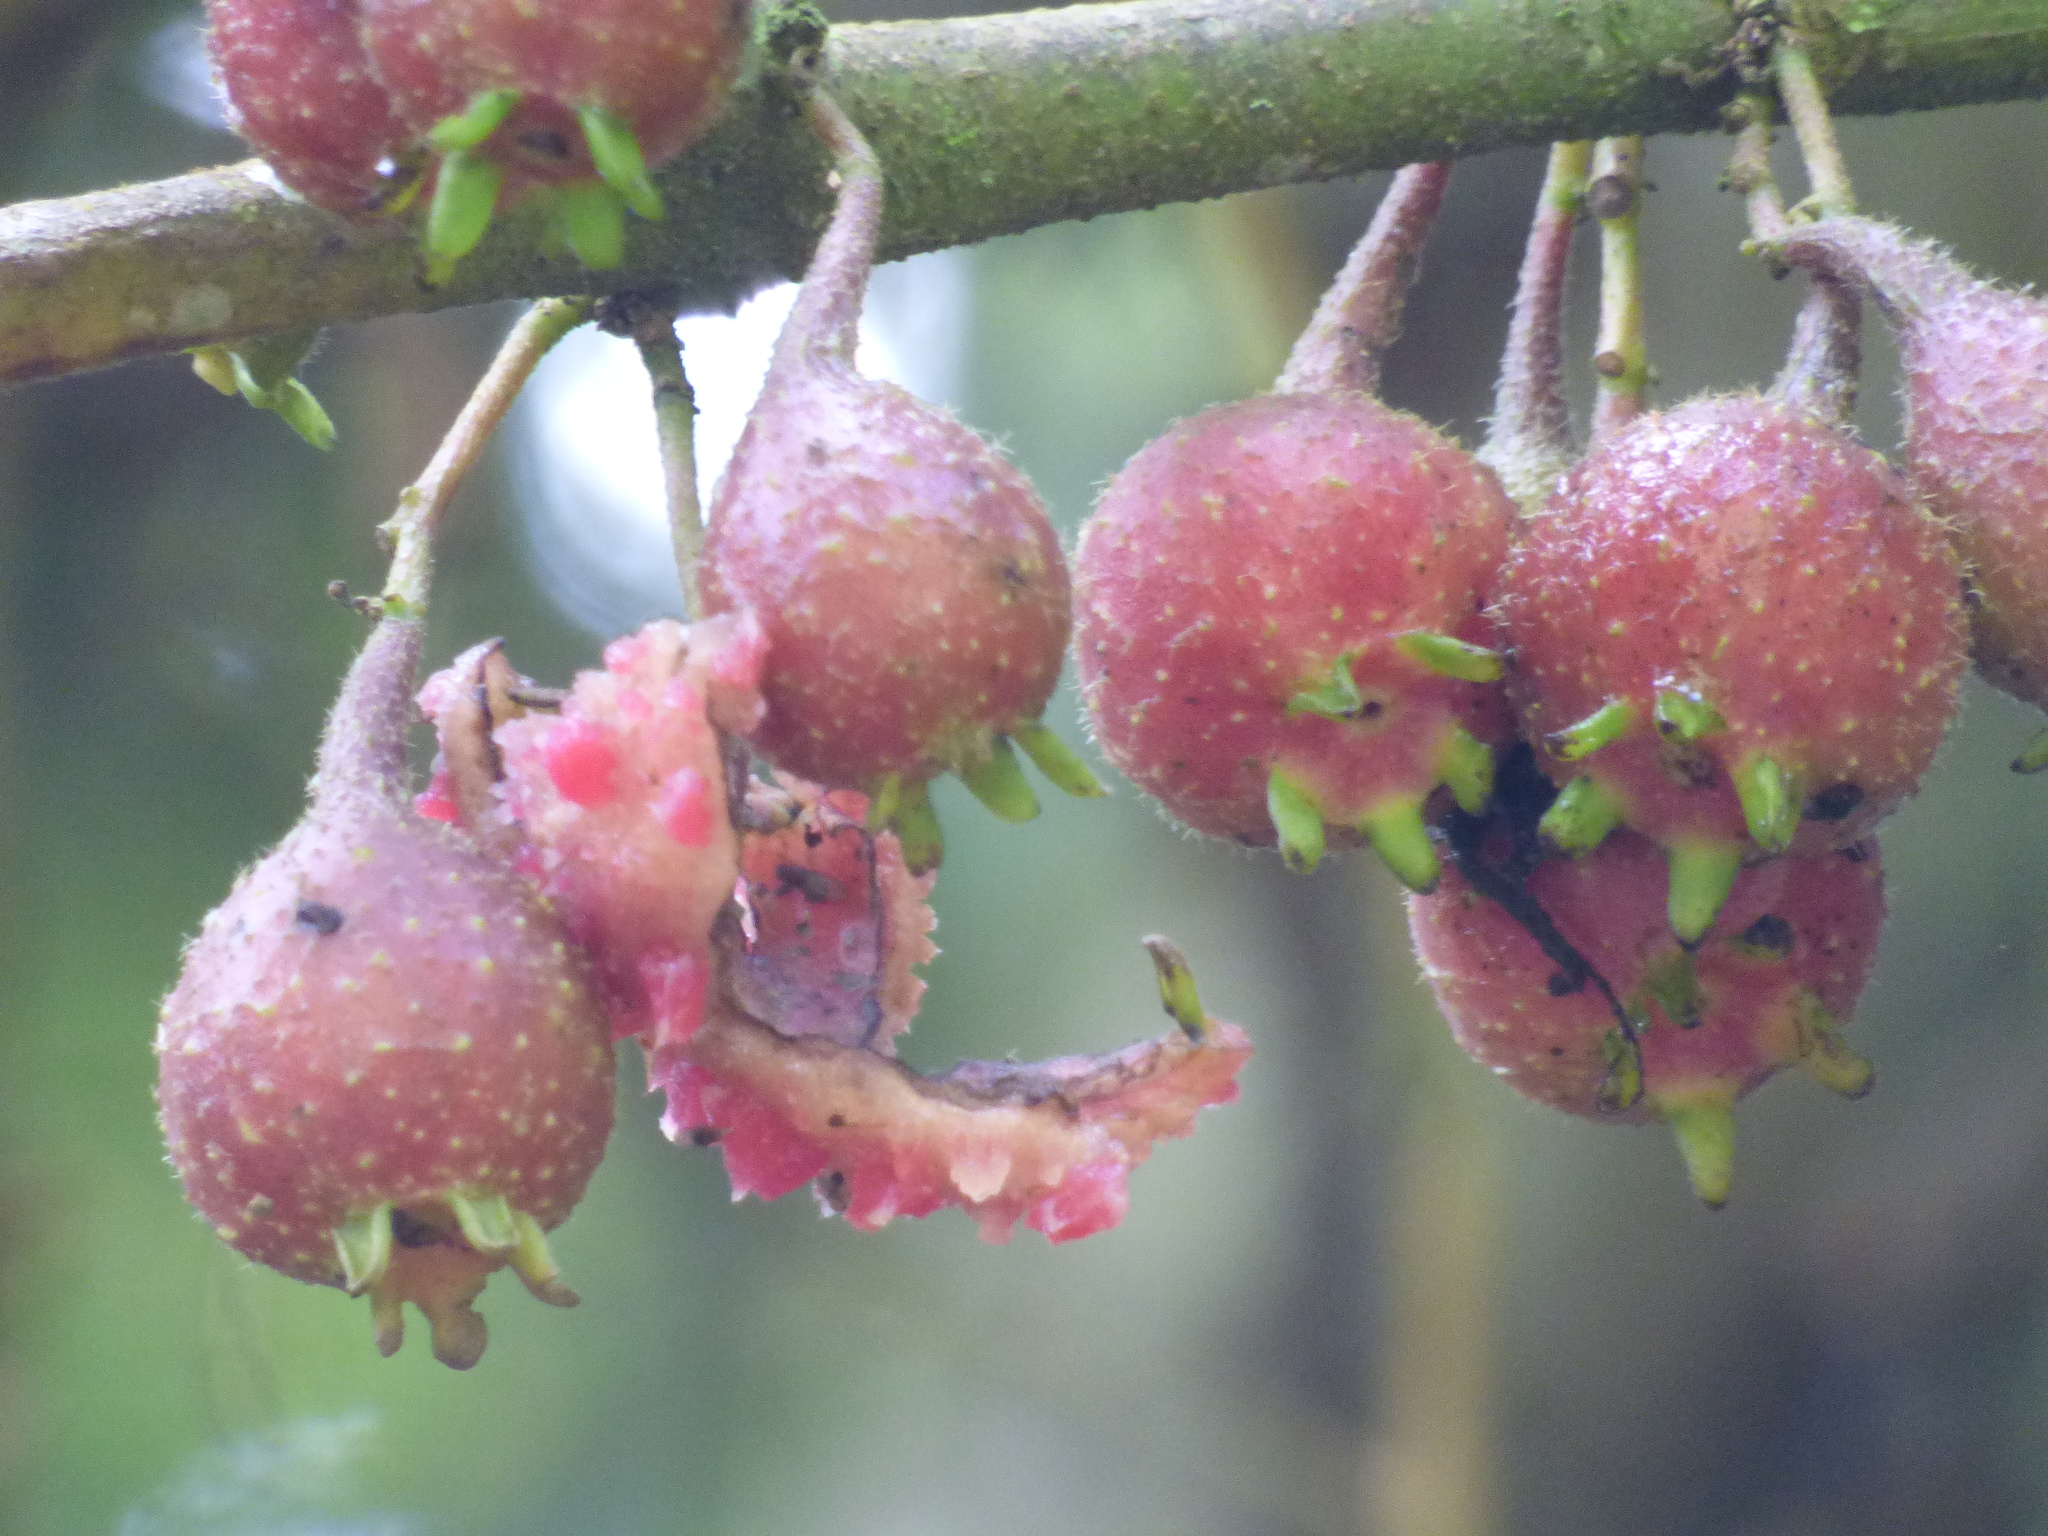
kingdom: Plantae
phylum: Tracheophyta
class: Magnoliopsida
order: Laurales
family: Siparunaceae
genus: Siparuna
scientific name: Siparuna aspera
